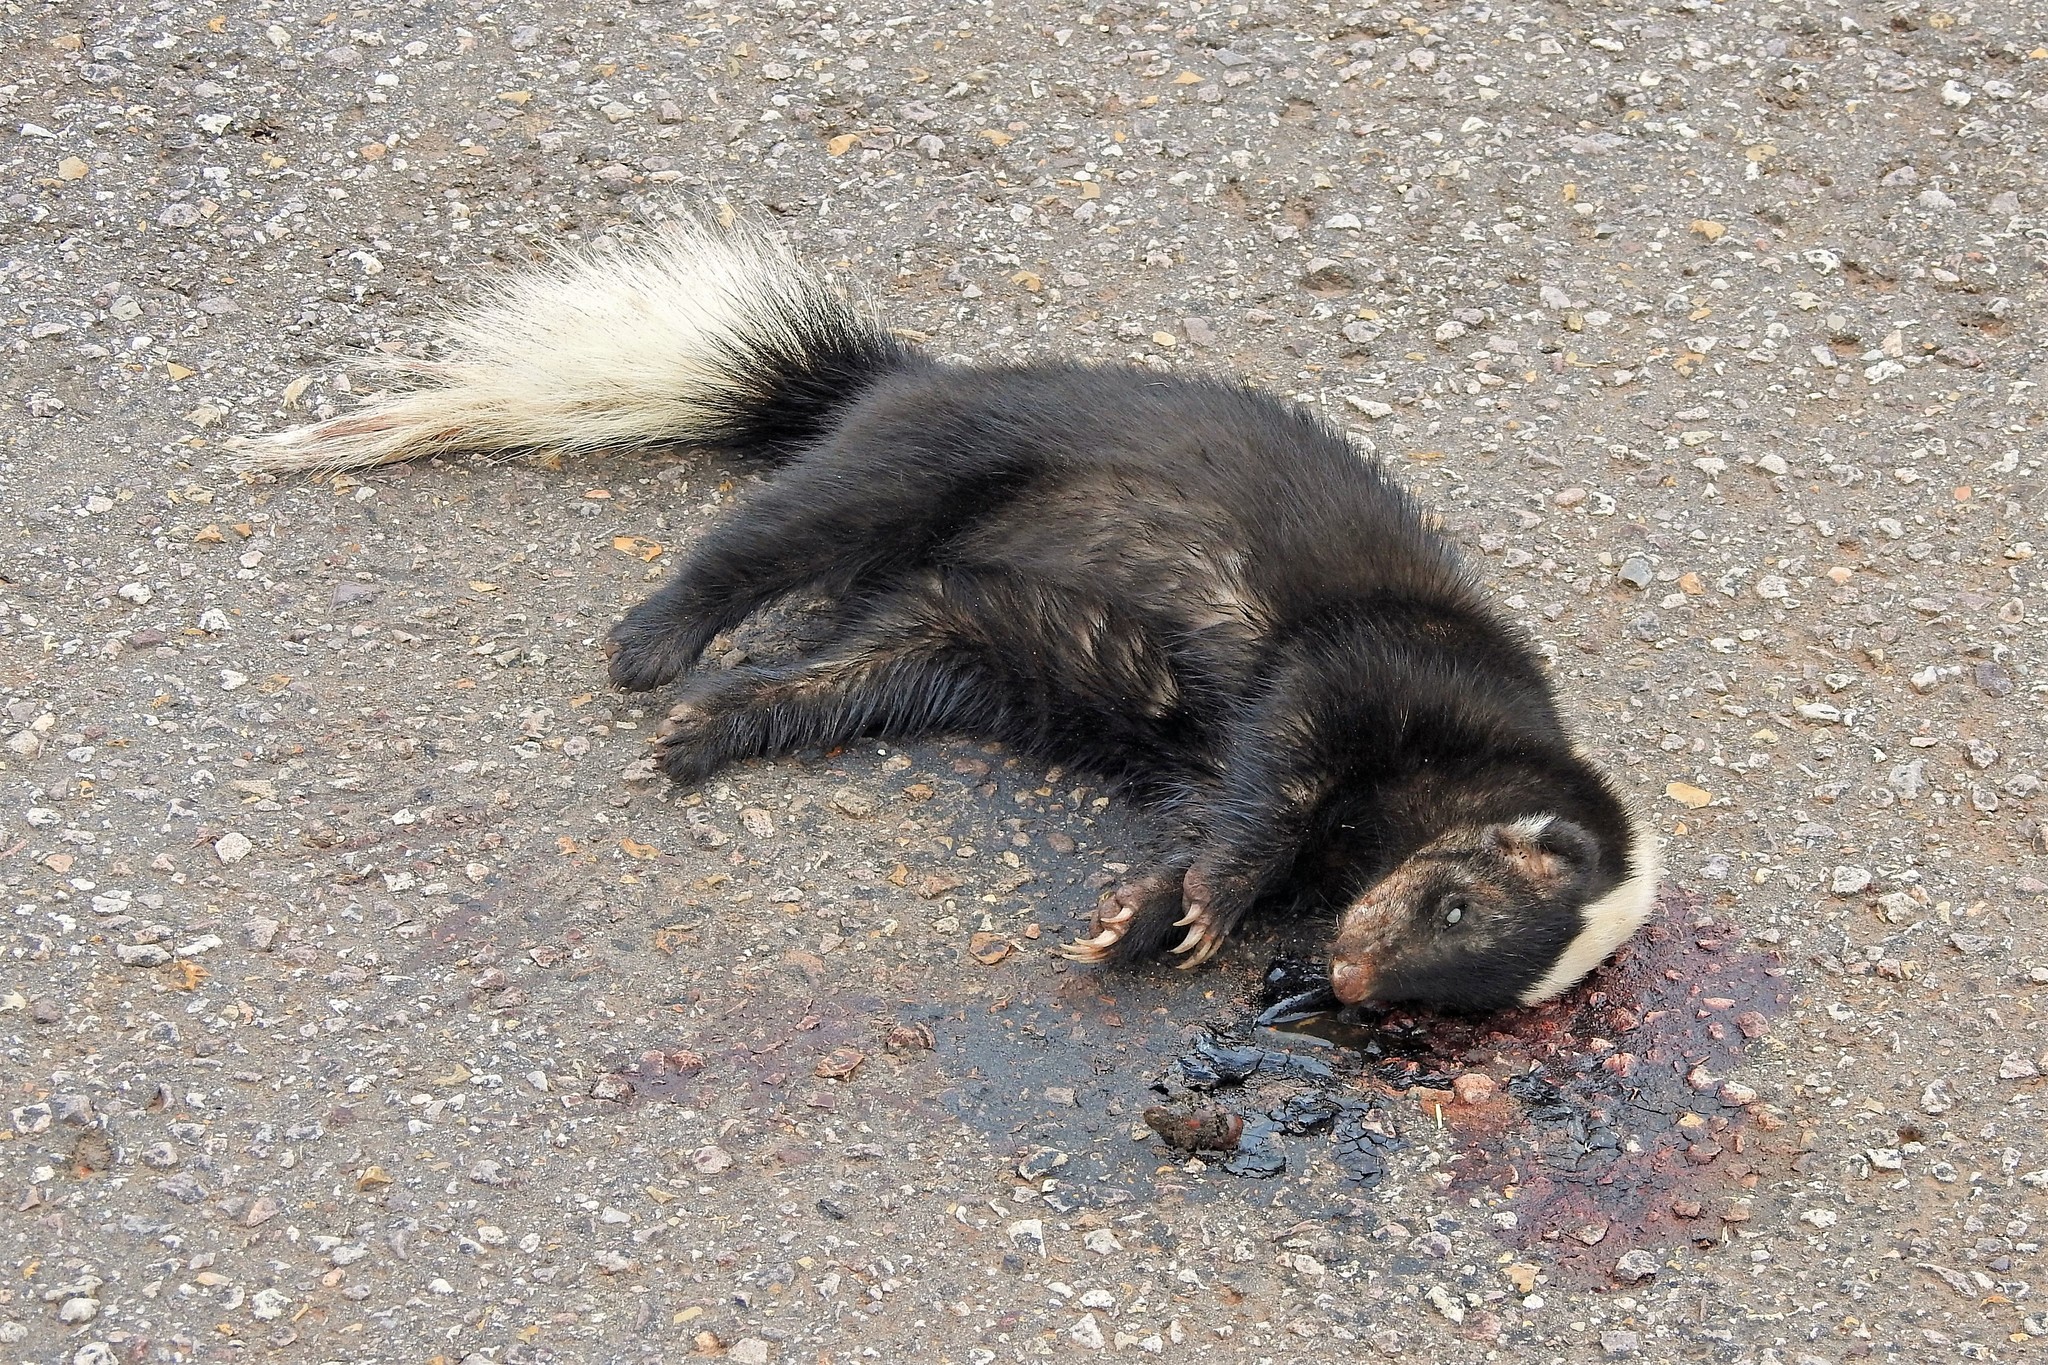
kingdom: Animalia
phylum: Chordata
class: Mammalia
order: Carnivora
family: Mephitidae
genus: Conepatus
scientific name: Conepatus chinga
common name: Molina's hog-nosed skunk
